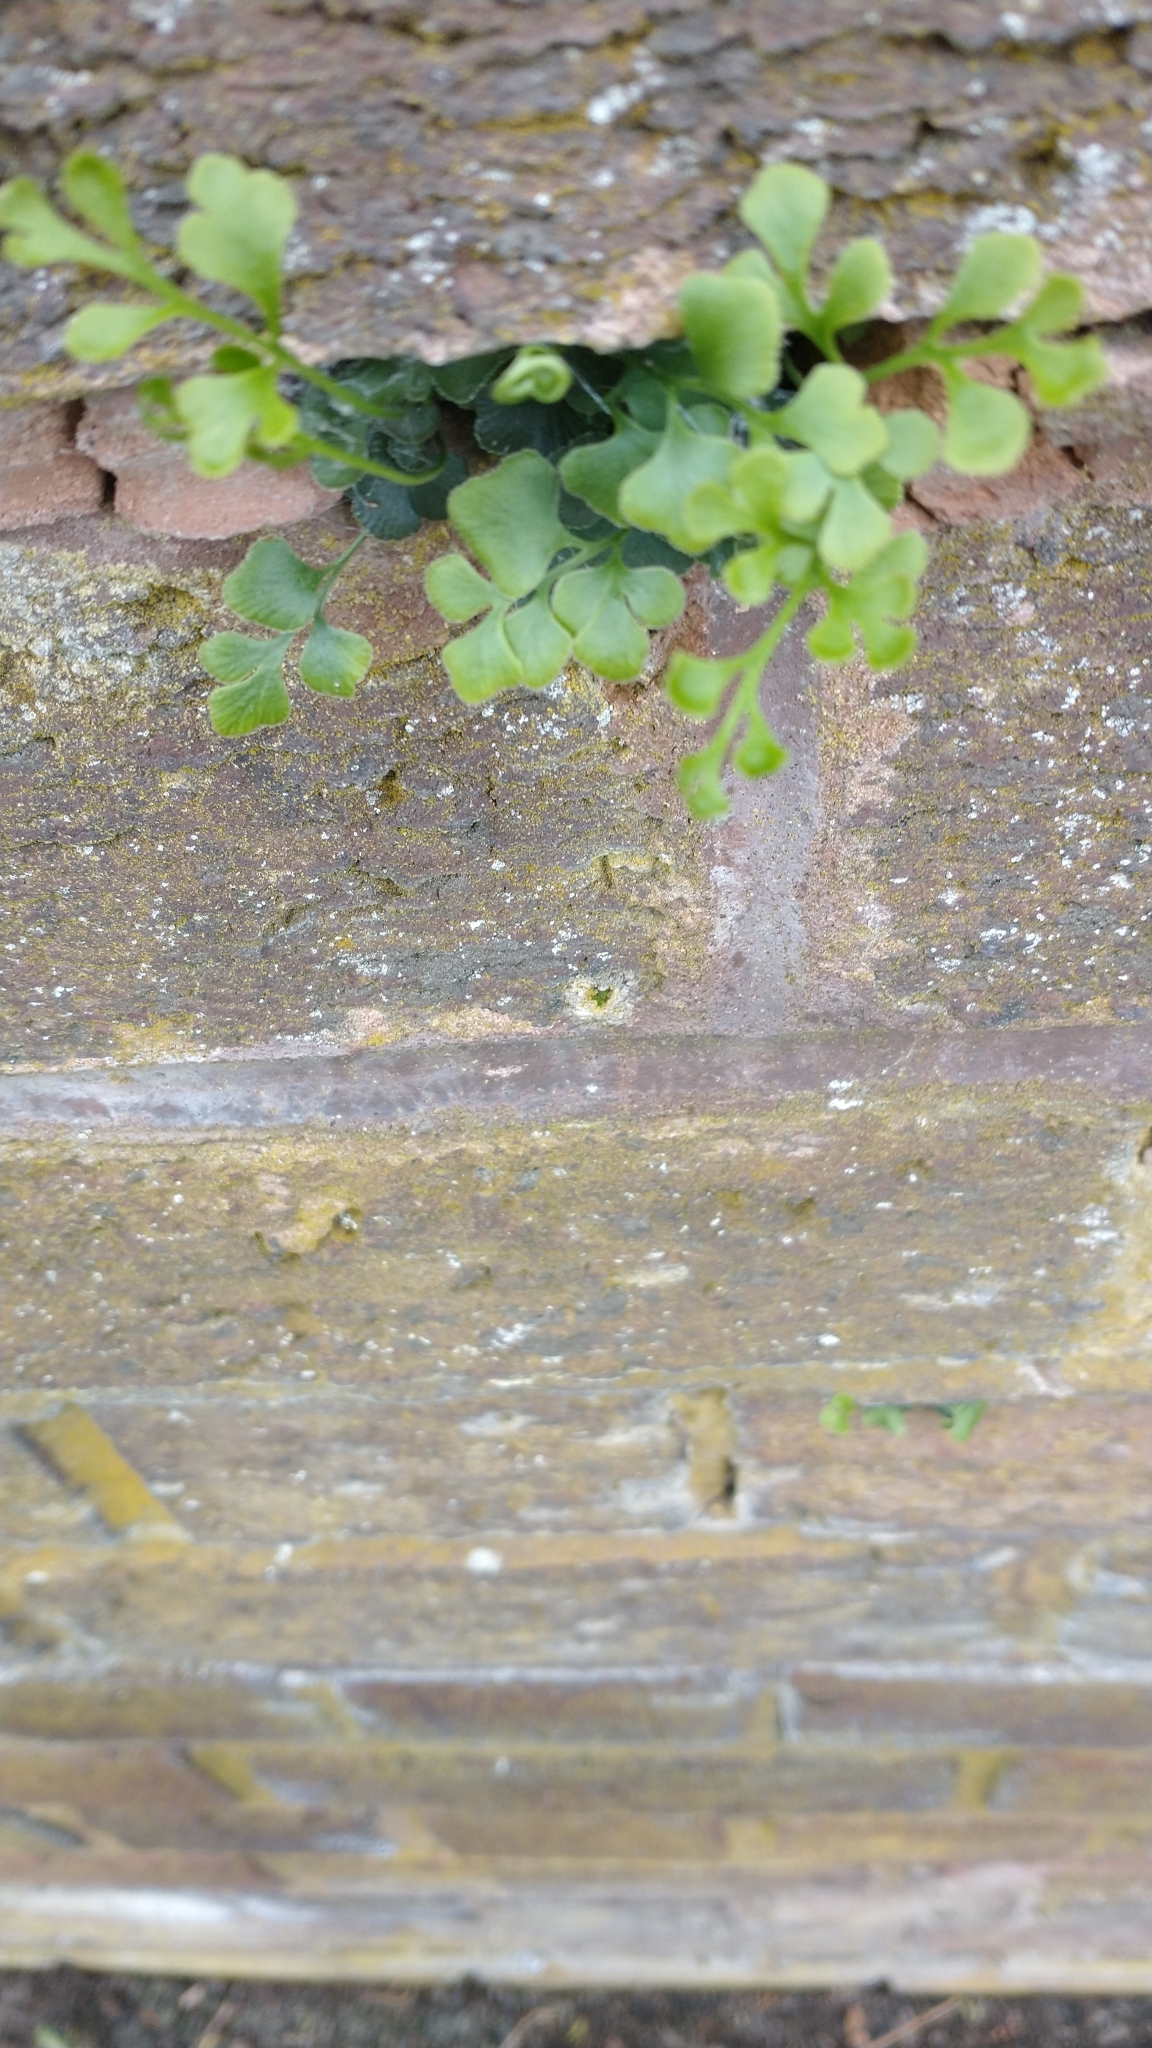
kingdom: Plantae
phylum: Tracheophyta
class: Polypodiopsida
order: Polypodiales
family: Aspleniaceae
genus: Asplenium
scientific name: Asplenium ruta-muraria
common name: Wall-rue
